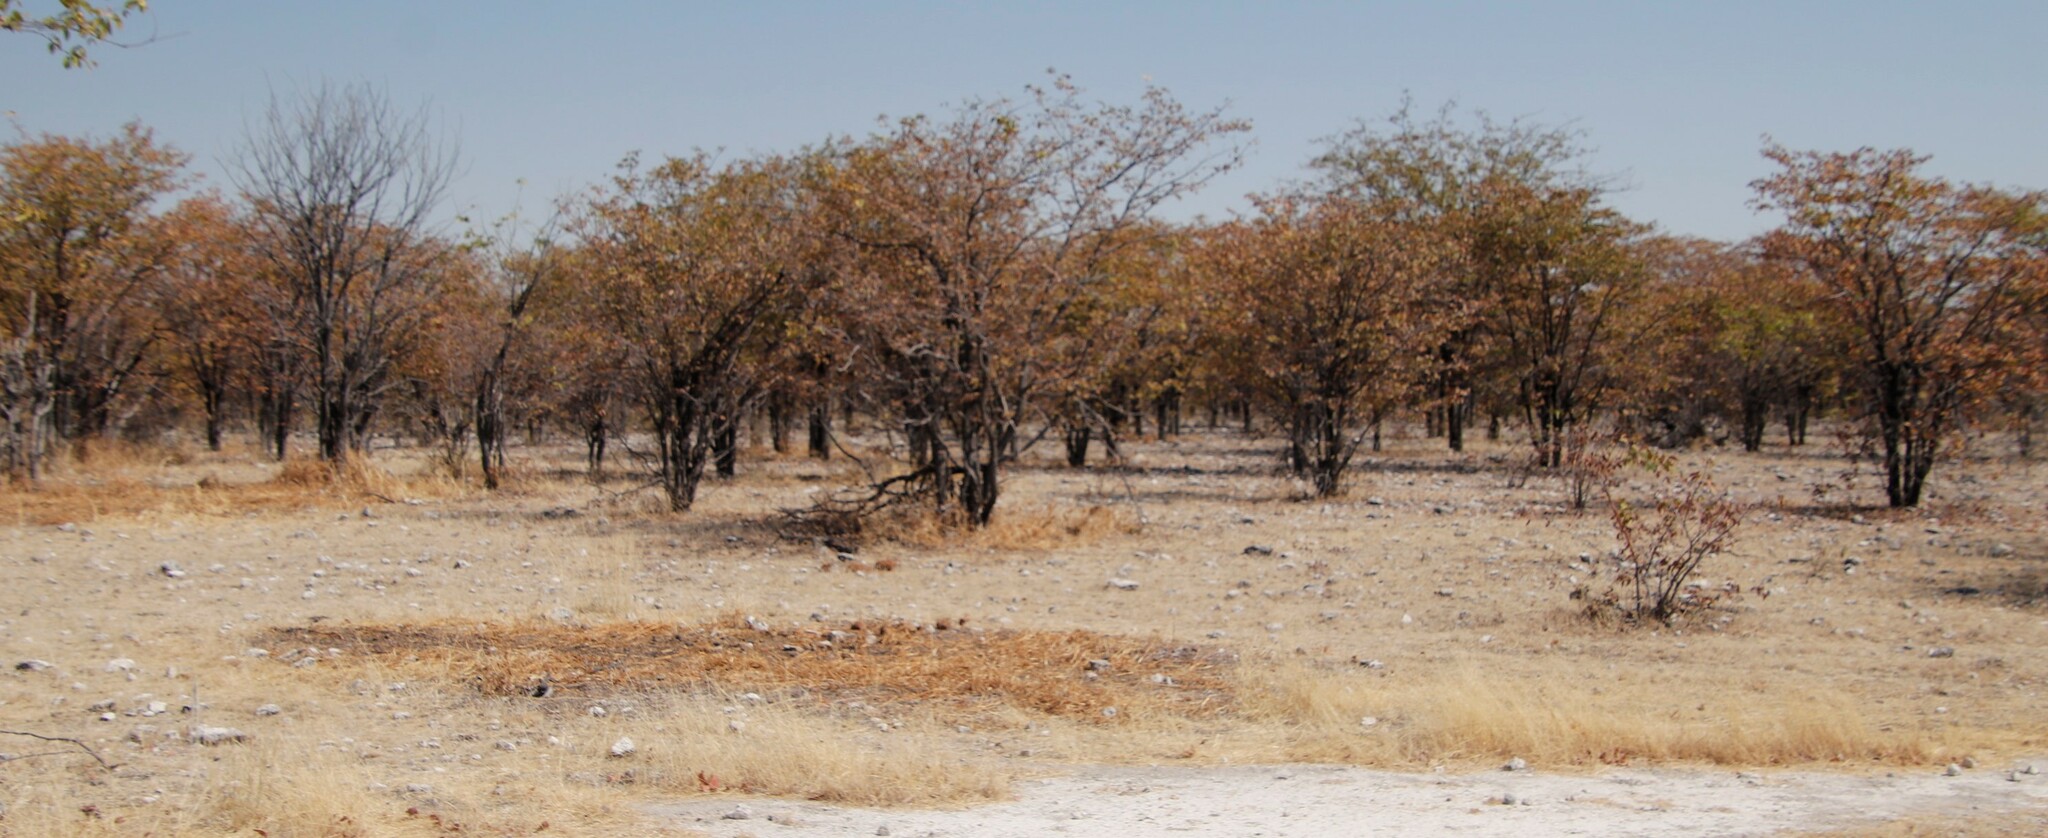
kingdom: Plantae
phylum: Tracheophyta
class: Magnoliopsida
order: Fabales
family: Fabaceae
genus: Colophospermum
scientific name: Colophospermum mopane
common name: Mopane
